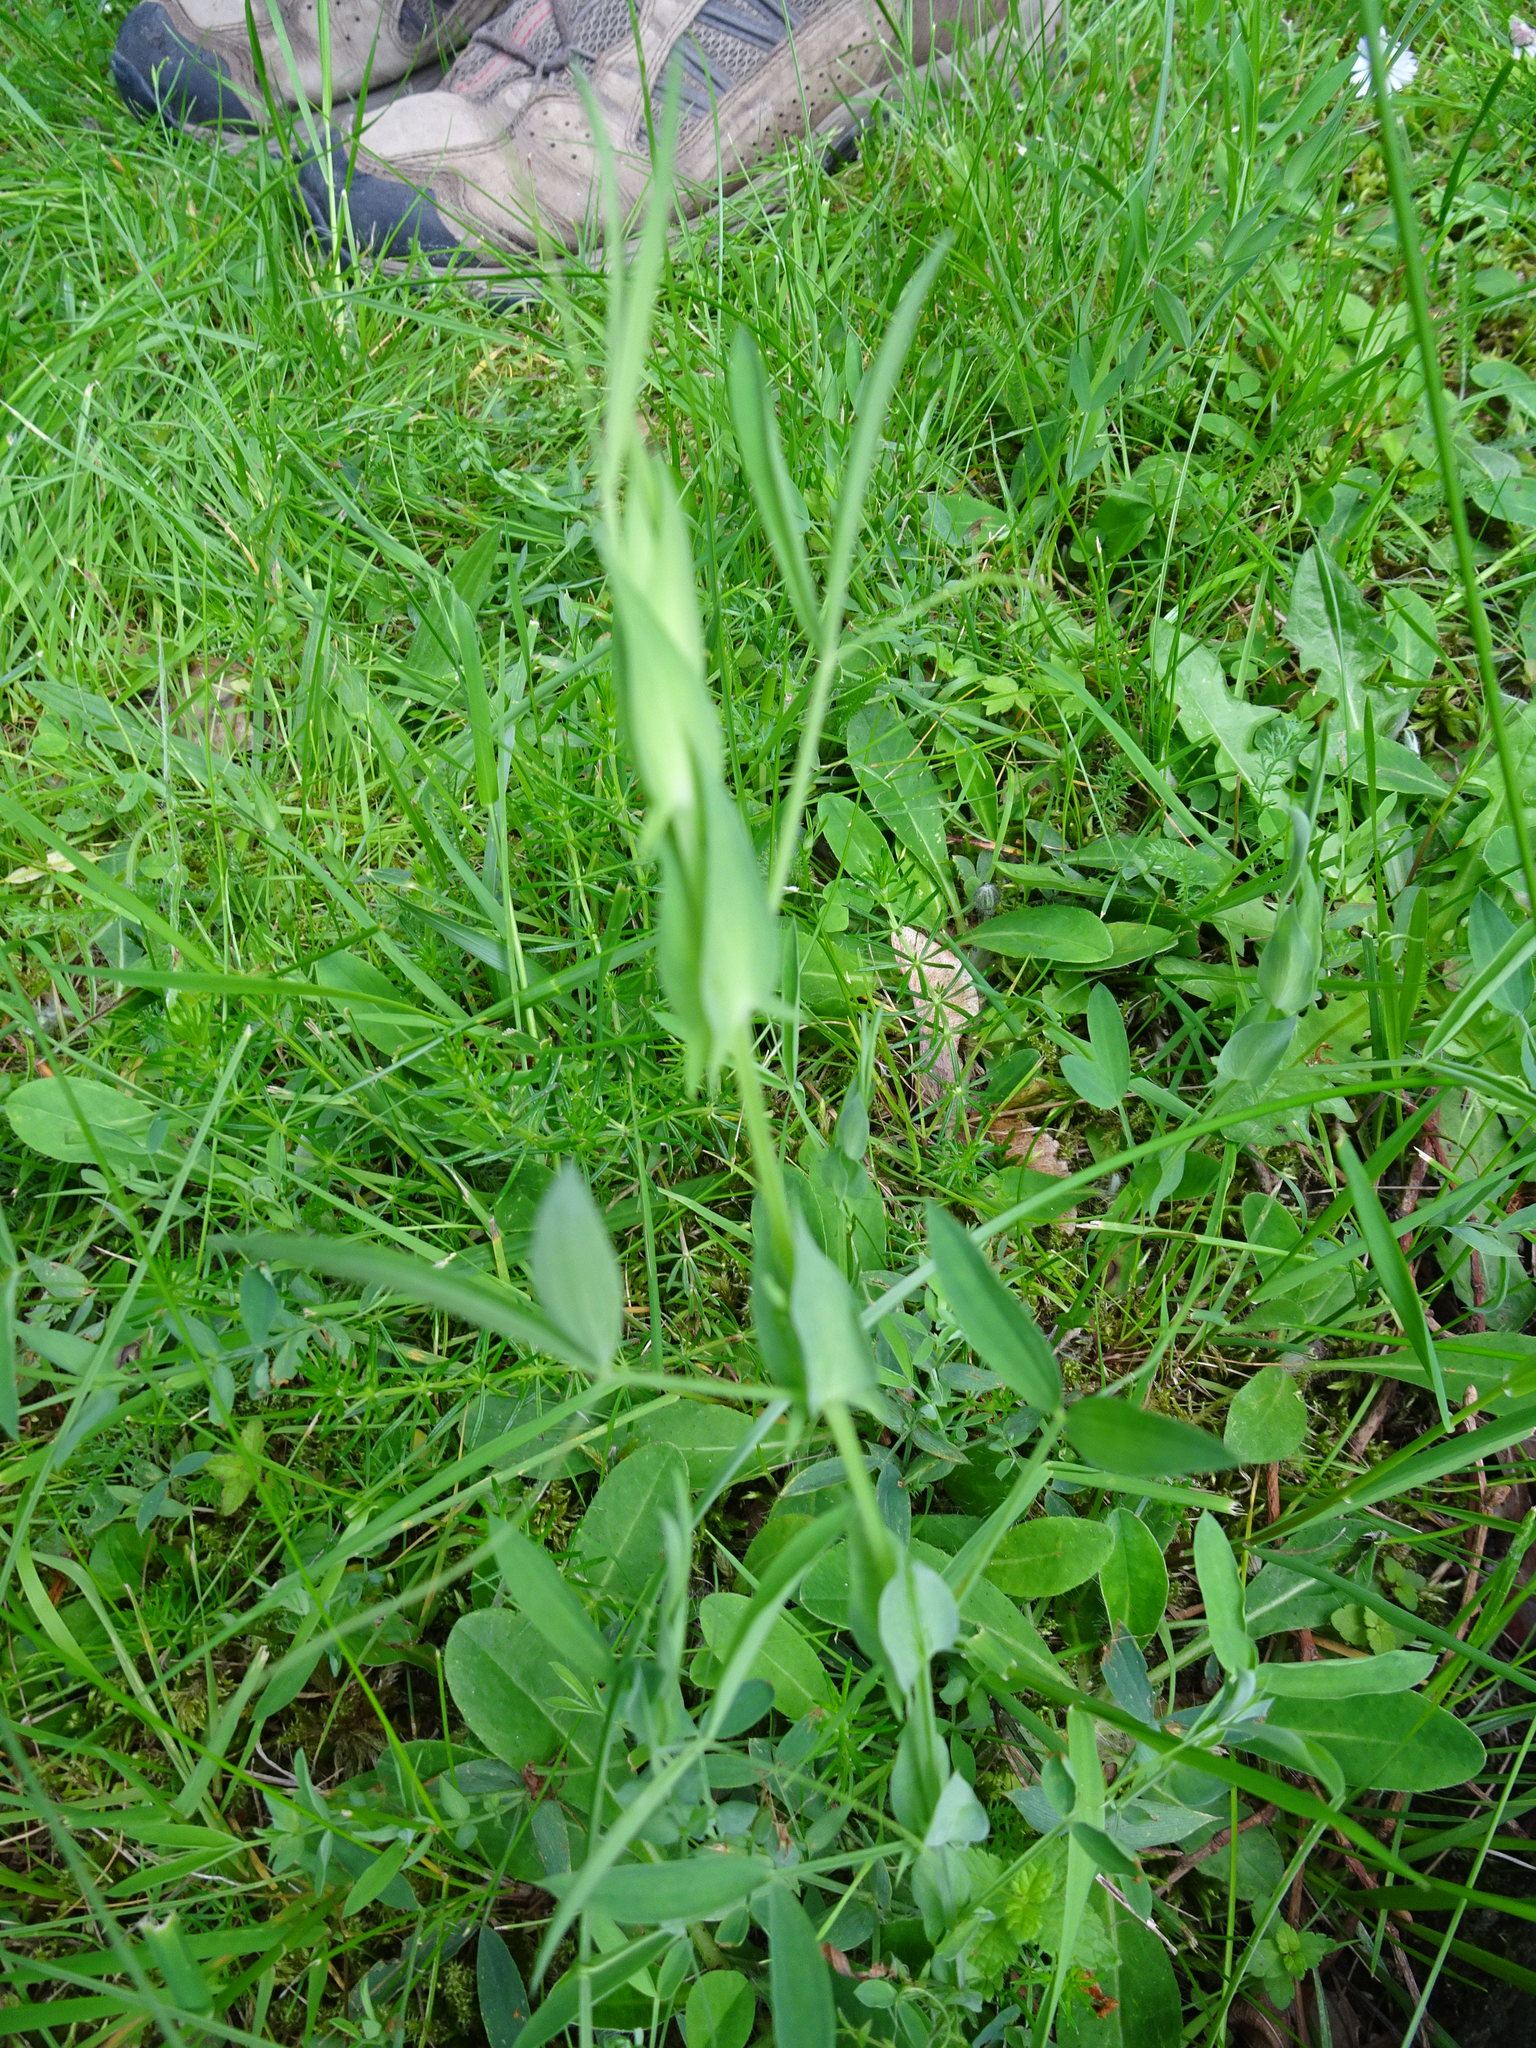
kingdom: Plantae
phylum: Tracheophyta
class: Magnoliopsida
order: Fabales
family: Fabaceae
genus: Lathyrus
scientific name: Lathyrus pratensis
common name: Meadow vetchling
